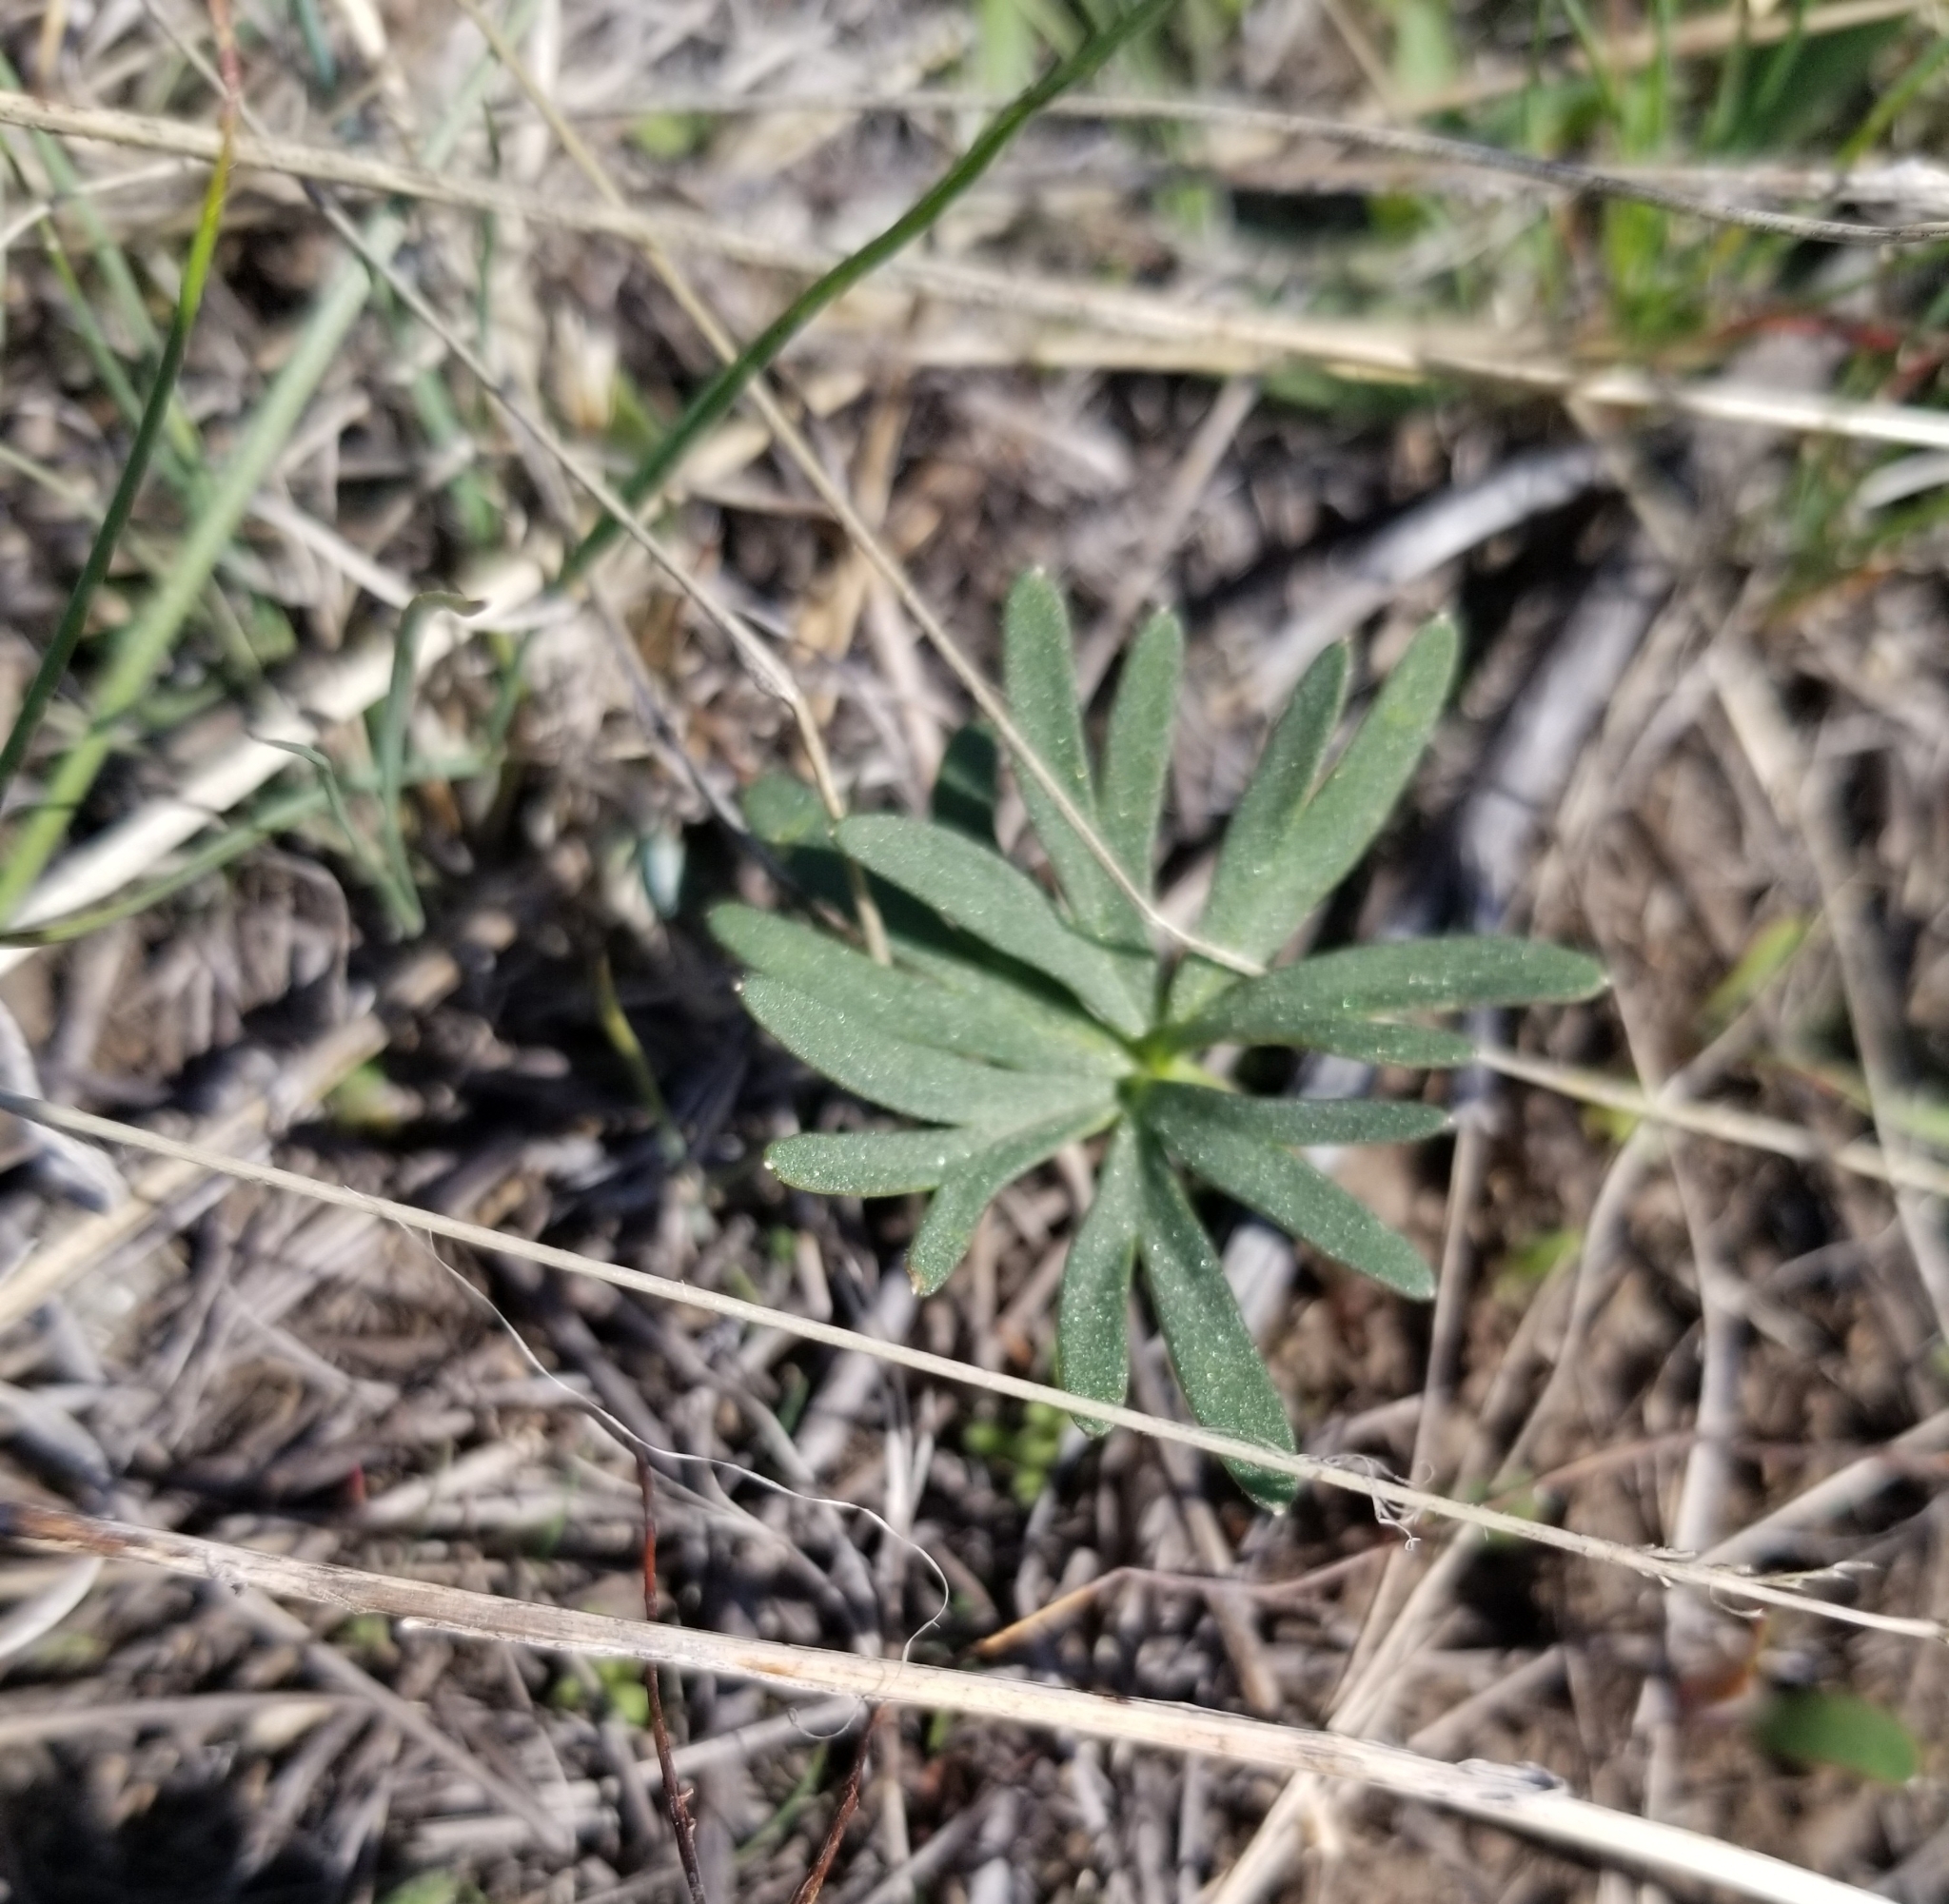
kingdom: Plantae
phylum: Tracheophyta
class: Magnoliopsida
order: Ranunculales
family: Ranunculaceae
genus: Delphinium
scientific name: Delphinium nuttallianum
